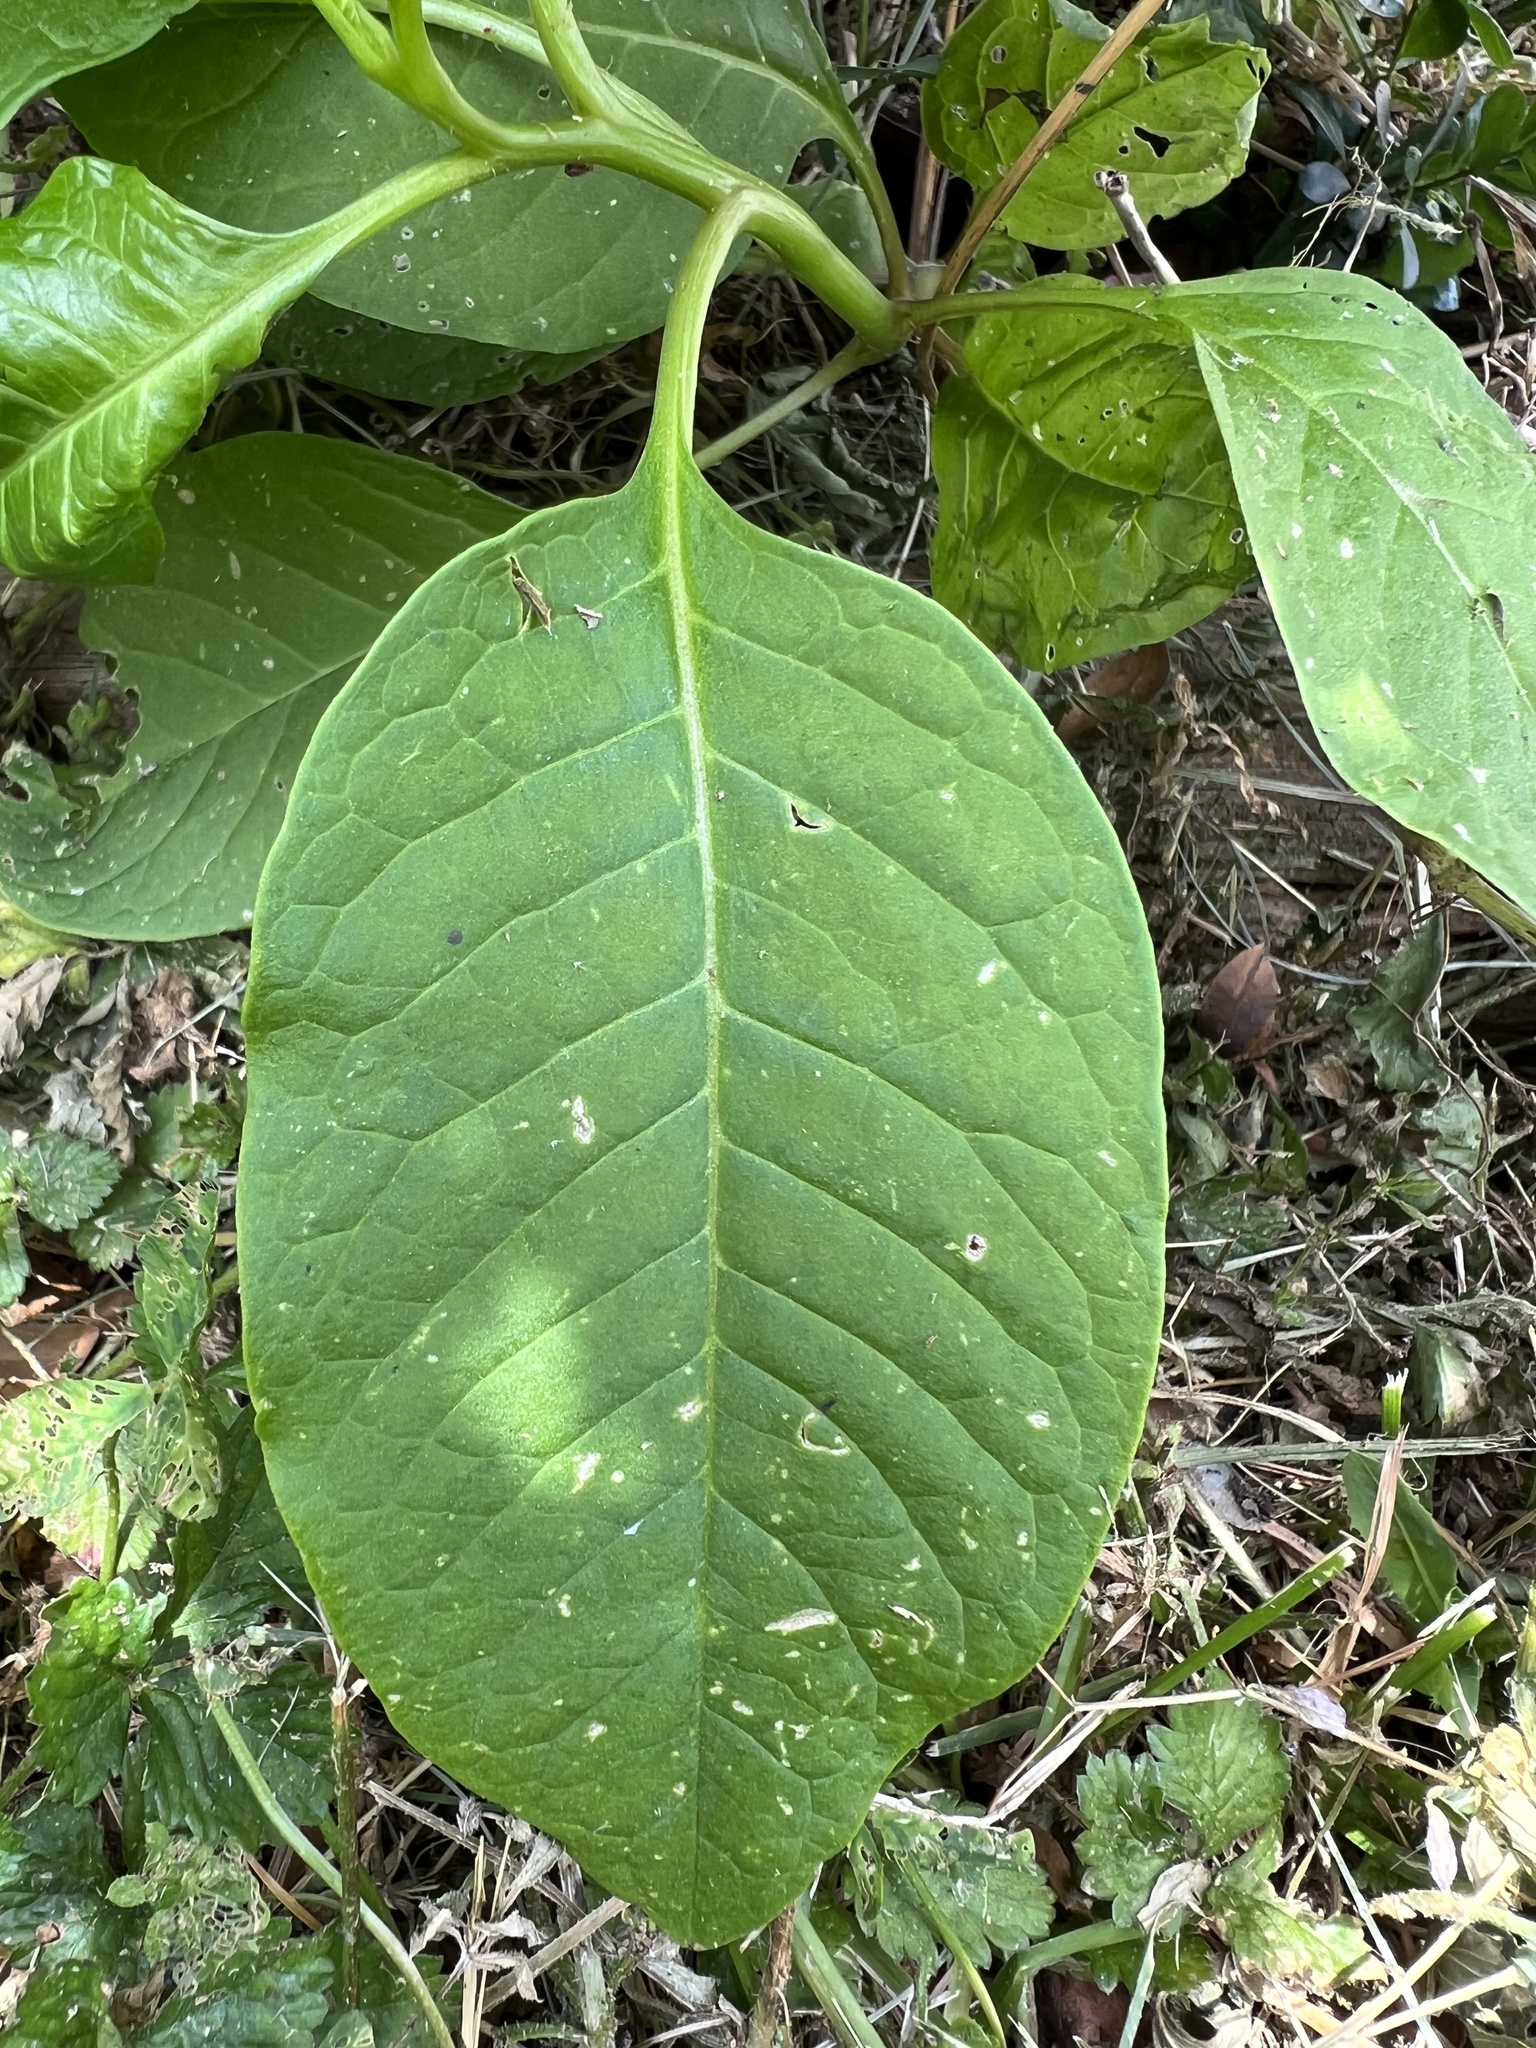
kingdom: Plantae
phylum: Tracheophyta
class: Magnoliopsida
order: Caryophyllales
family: Phytolaccaceae
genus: Phytolacca
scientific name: Phytolacca americana
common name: American pokeweed
